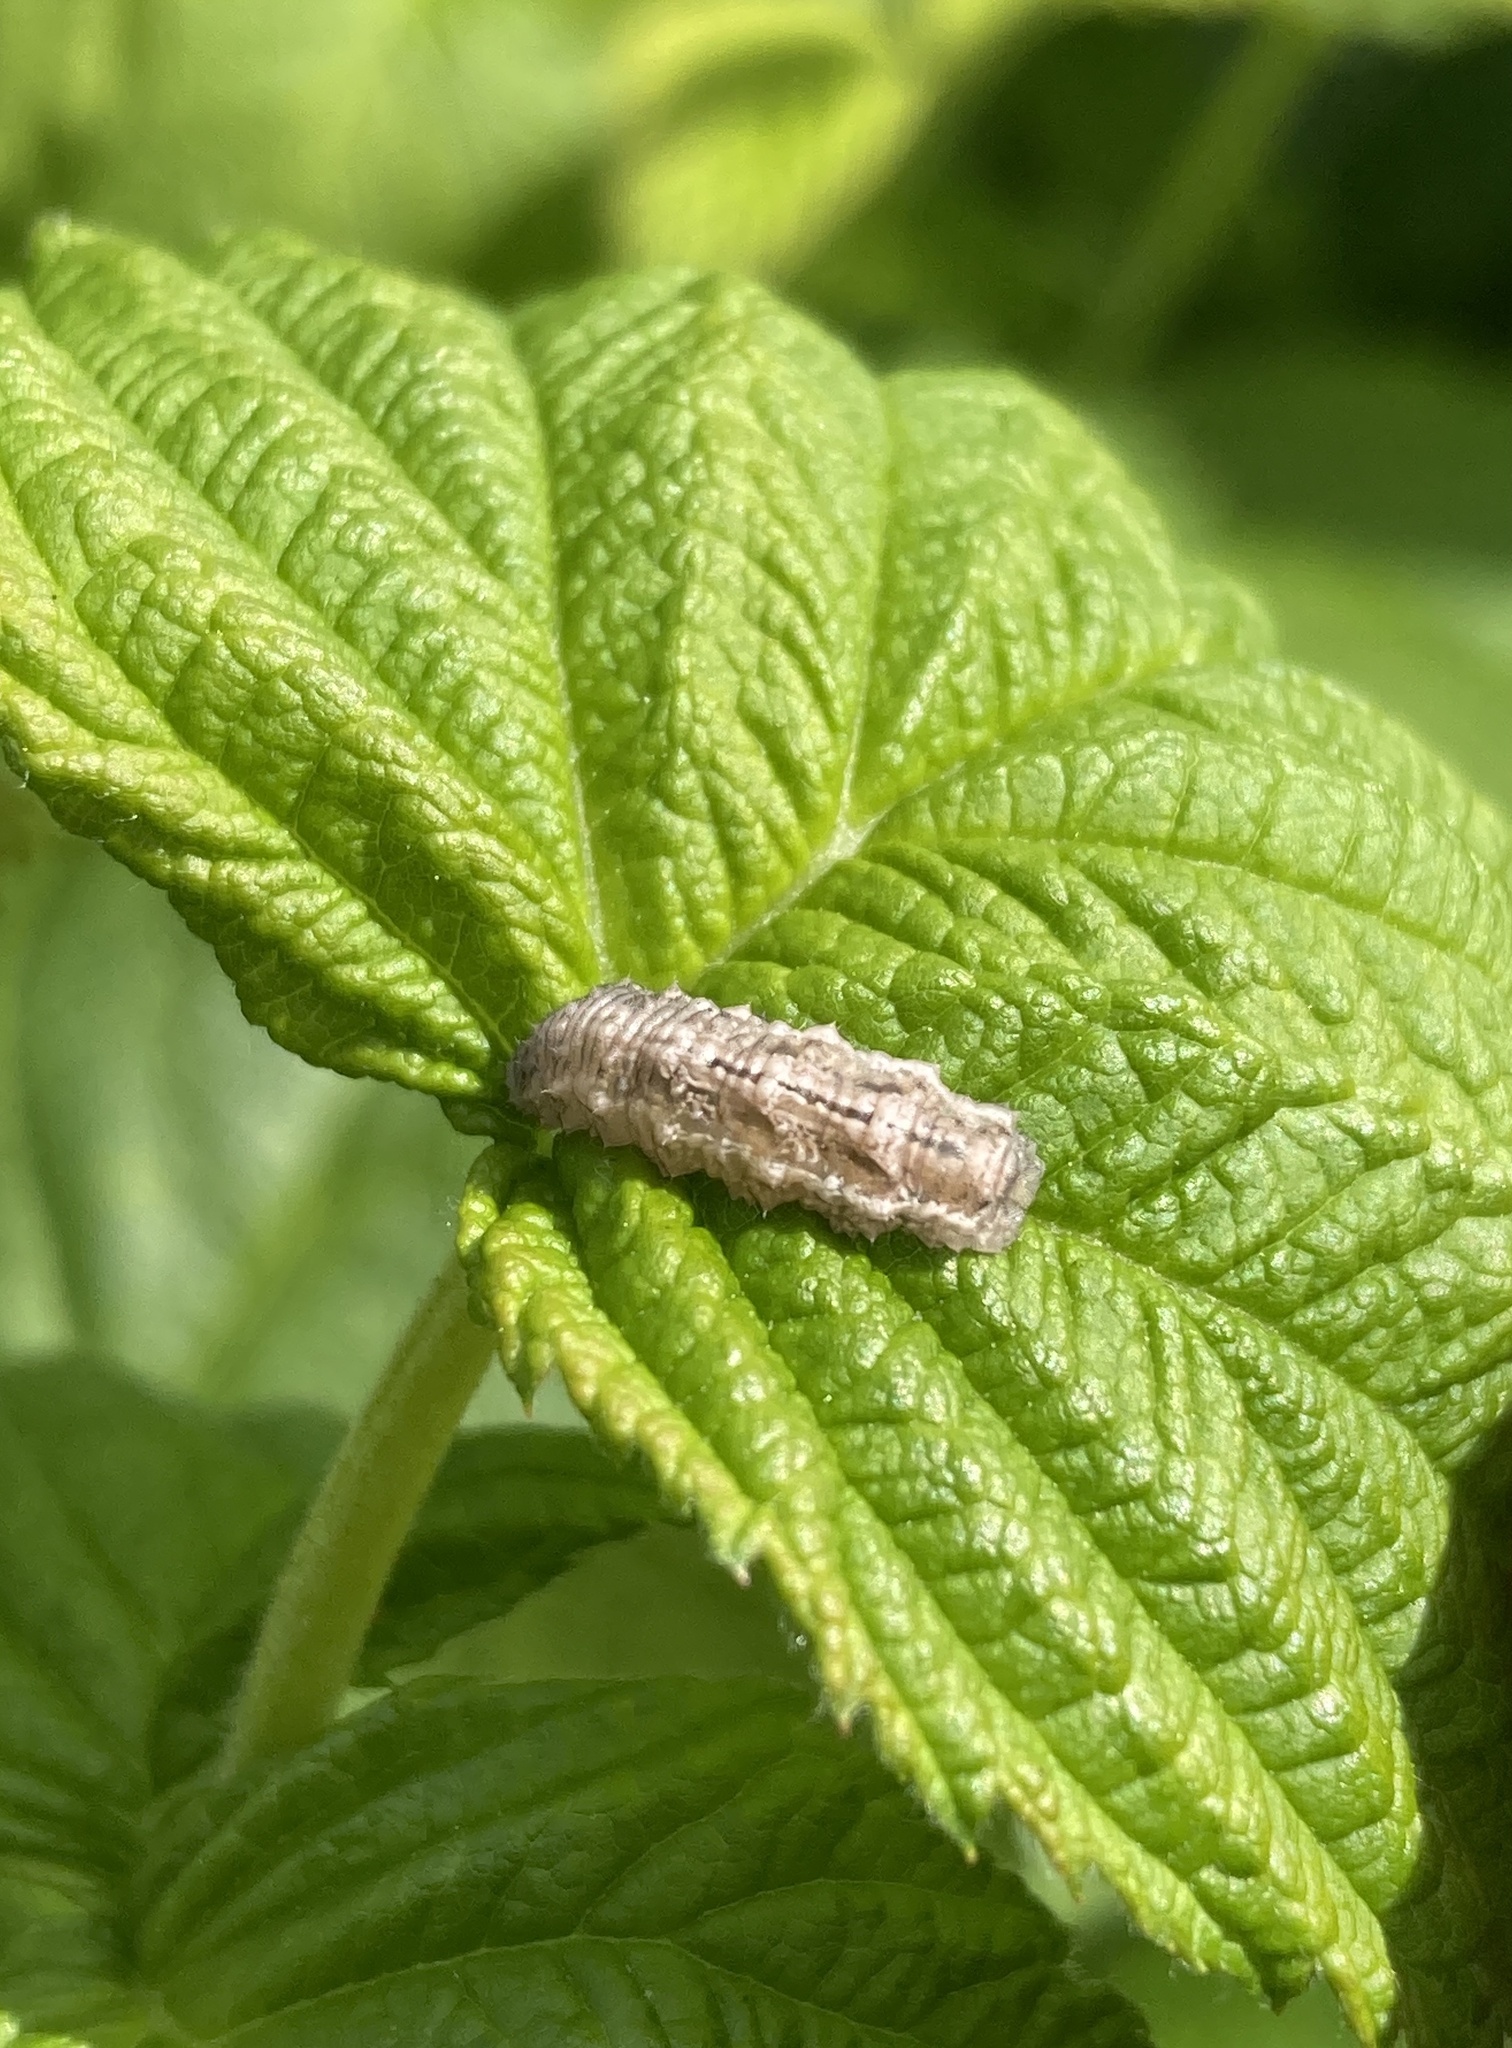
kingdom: Animalia
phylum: Arthropoda
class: Insecta
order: Diptera
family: Syrphidae
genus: Eupeodes
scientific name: Eupeodes
